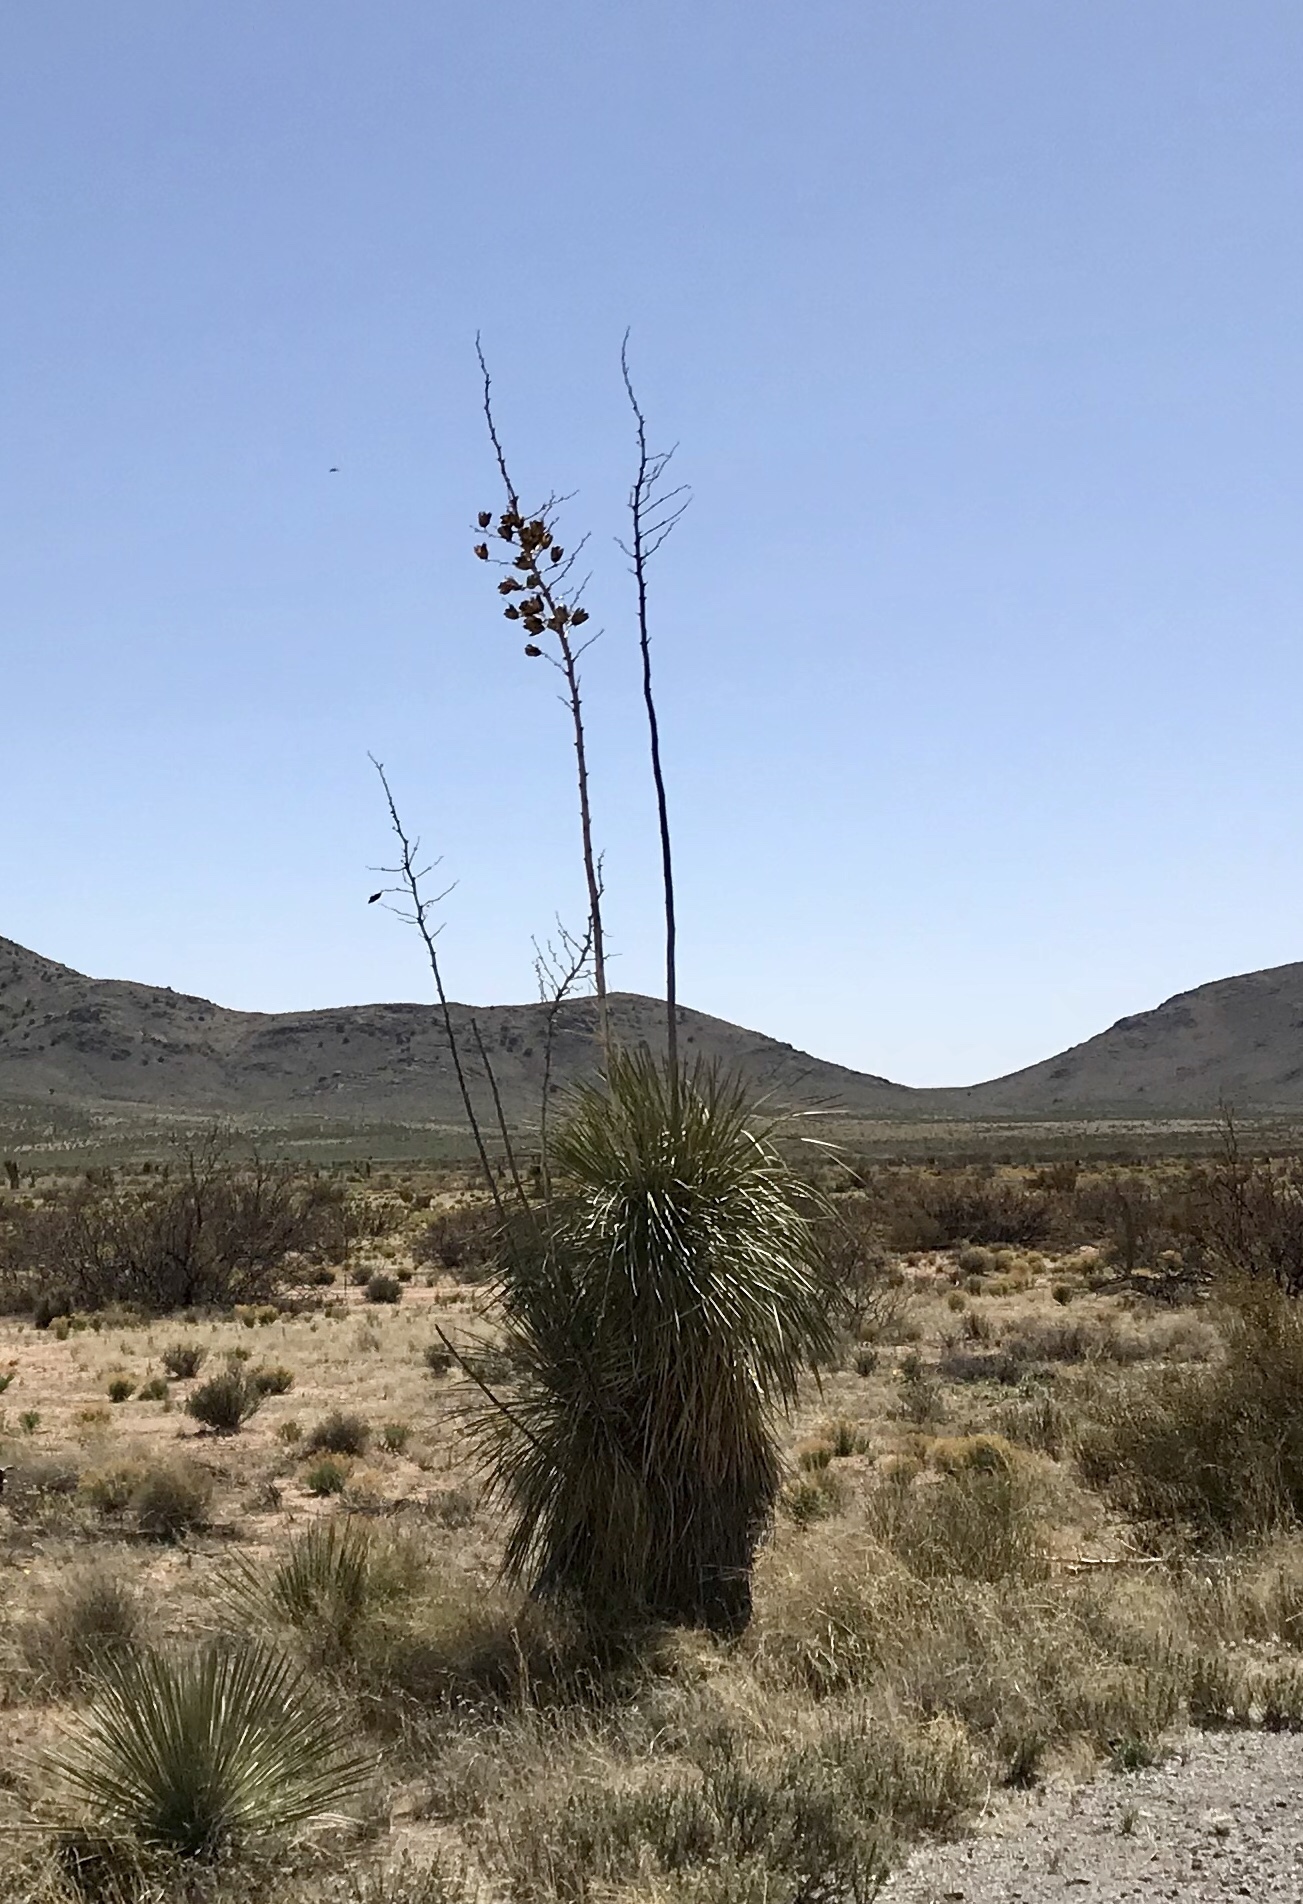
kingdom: Plantae
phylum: Tracheophyta
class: Liliopsida
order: Asparagales
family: Asparagaceae
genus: Yucca
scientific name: Yucca elata
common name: Palmella
